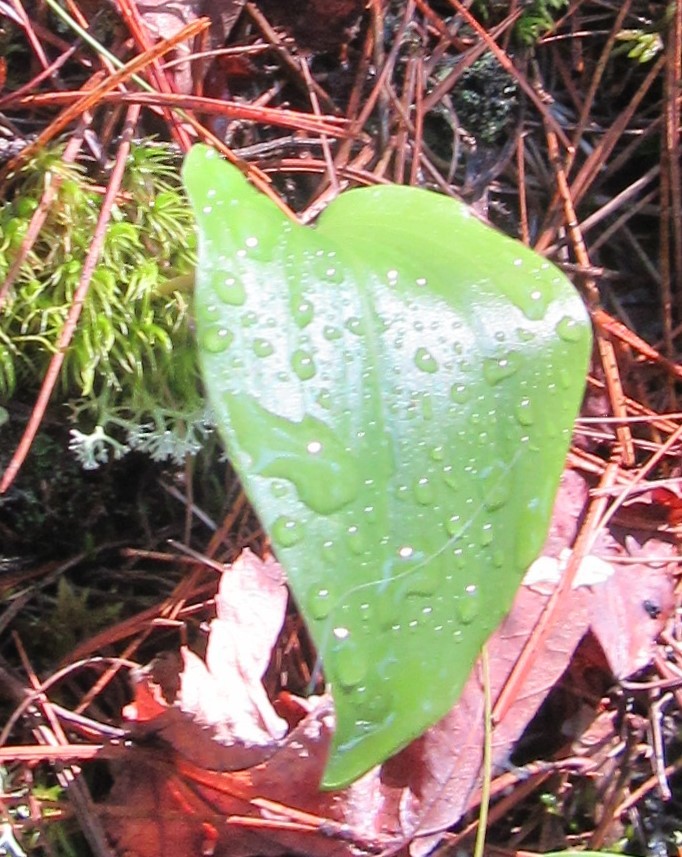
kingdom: Plantae
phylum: Tracheophyta
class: Liliopsida
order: Asparagales
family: Asparagaceae
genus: Maianthemum
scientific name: Maianthemum canadense
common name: False lily-of-the-valley
